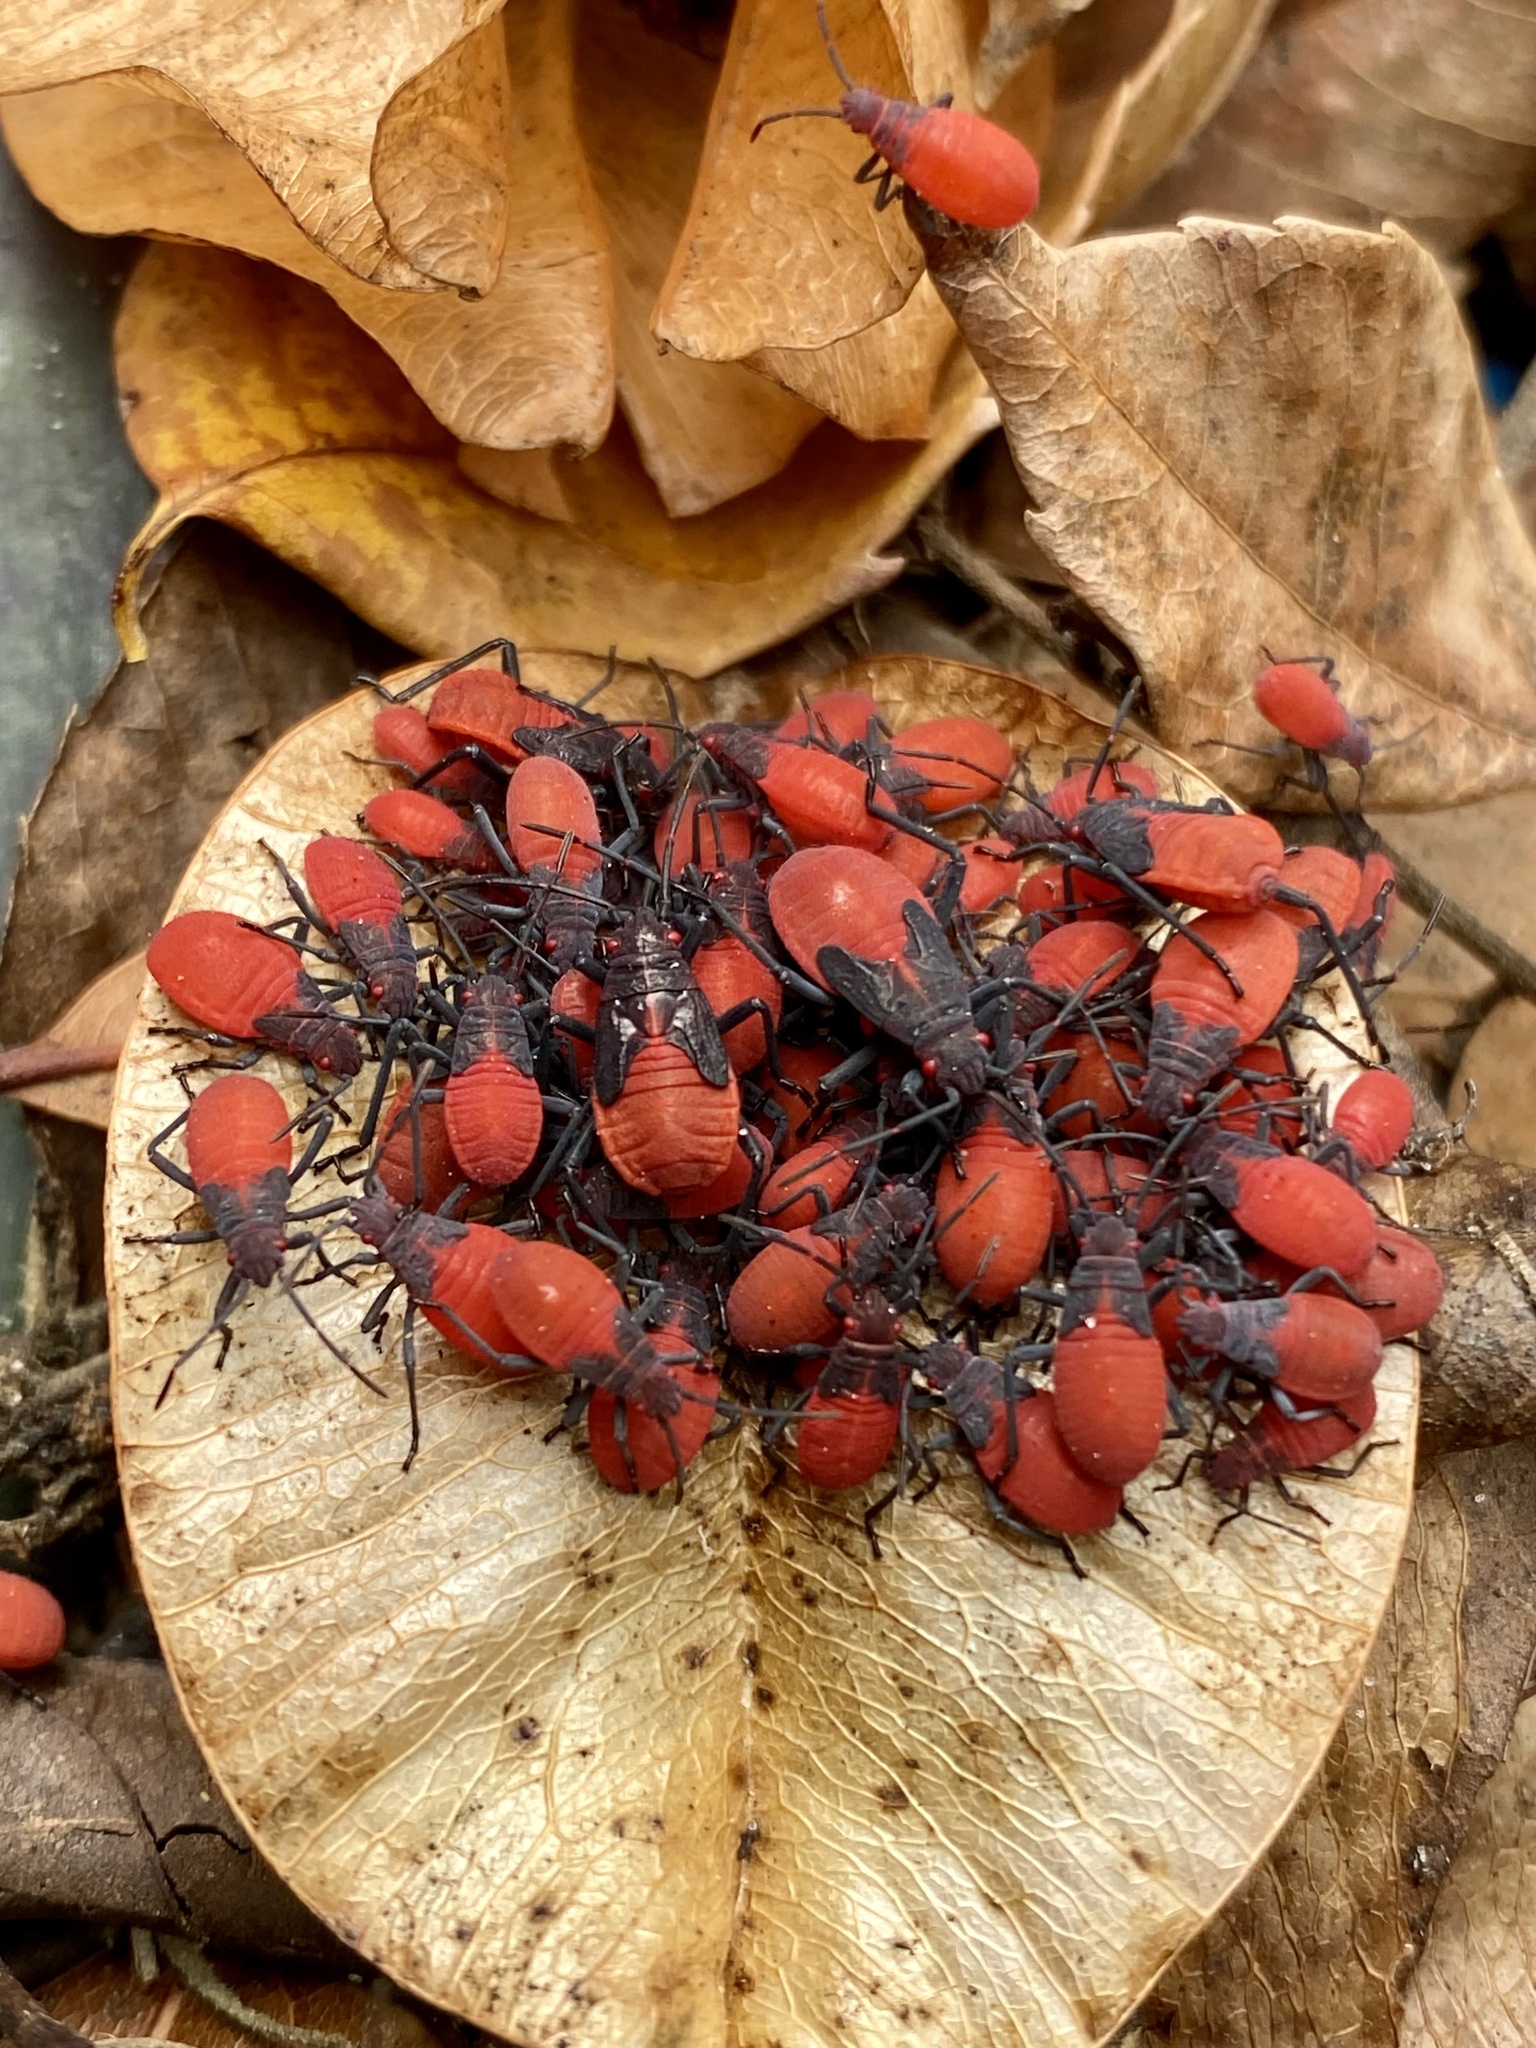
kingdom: Animalia
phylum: Arthropoda
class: Insecta
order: Hemiptera
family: Rhopalidae
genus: Jadera
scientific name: Jadera haematoloma
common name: Red-shouldered bug
